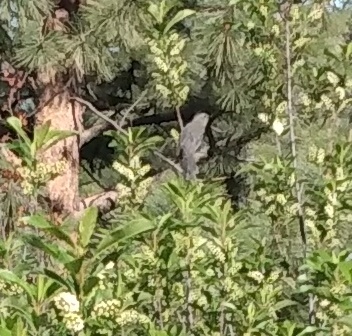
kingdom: Animalia
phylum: Chordata
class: Aves
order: Passeriformes
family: Mimidae
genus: Dumetella
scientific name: Dumetella carolinensis
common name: Gray catbird
